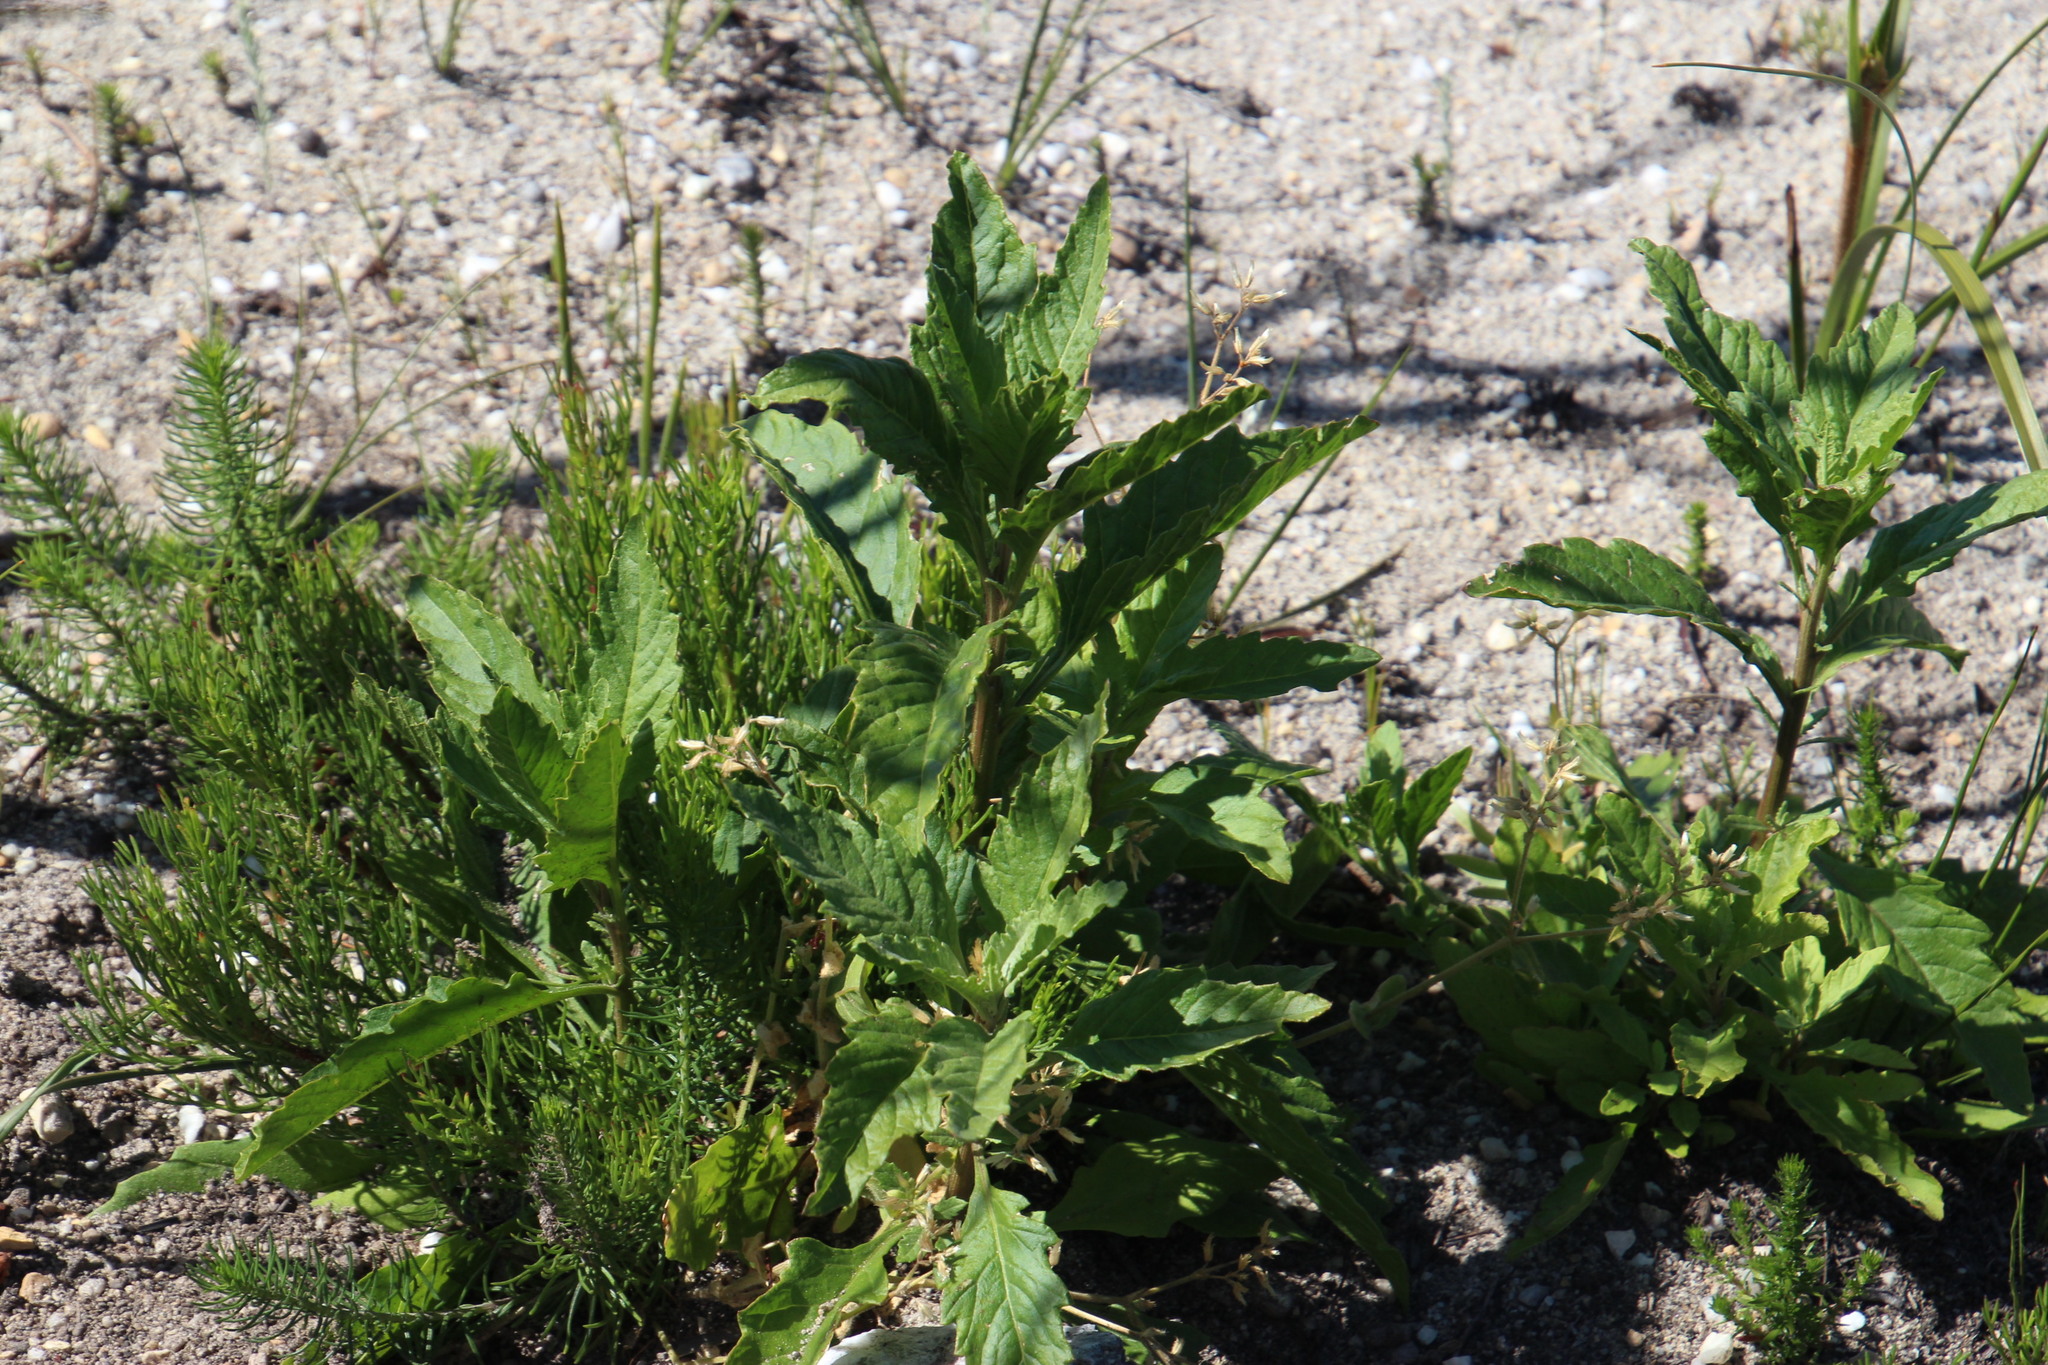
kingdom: Plantae
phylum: Tracheophyta
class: Magnoliopsida
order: Caryophyllales
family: Amaranthaceae
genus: Dysphania
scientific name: Dysphania ambrosioides
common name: Wormseed
